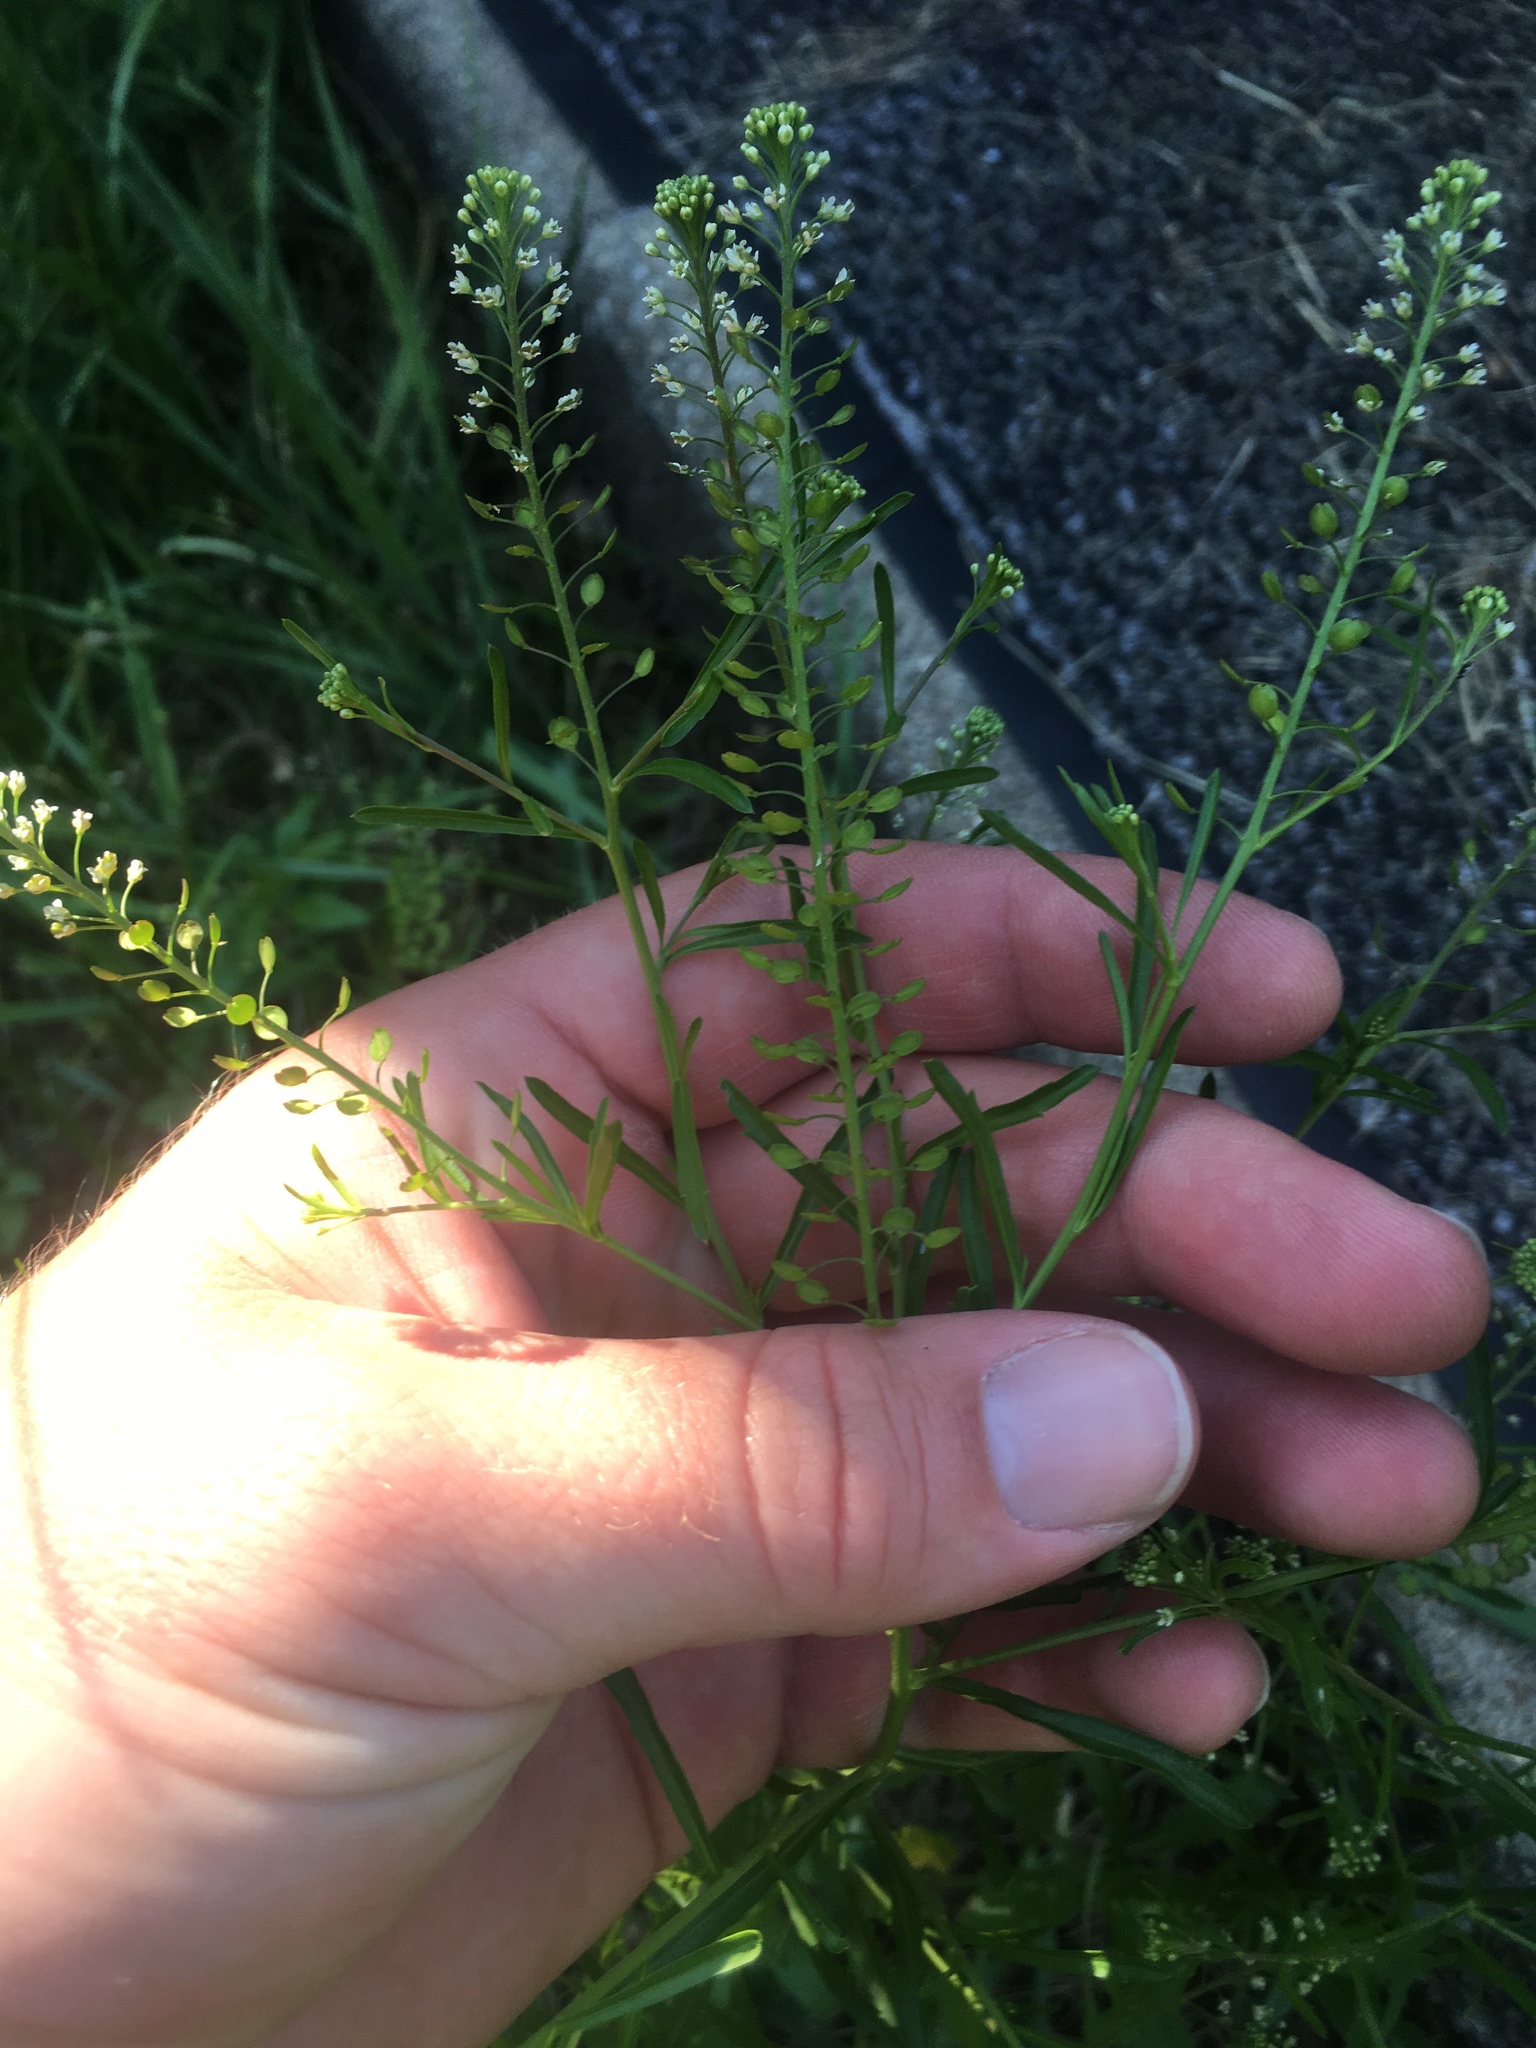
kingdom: Plantae
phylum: Tracheophyta
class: Magnoliopsida
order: Brassicales
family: Brassicaceae
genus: Lepidium
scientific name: Lepidium virginicum
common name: Least pepperwort
